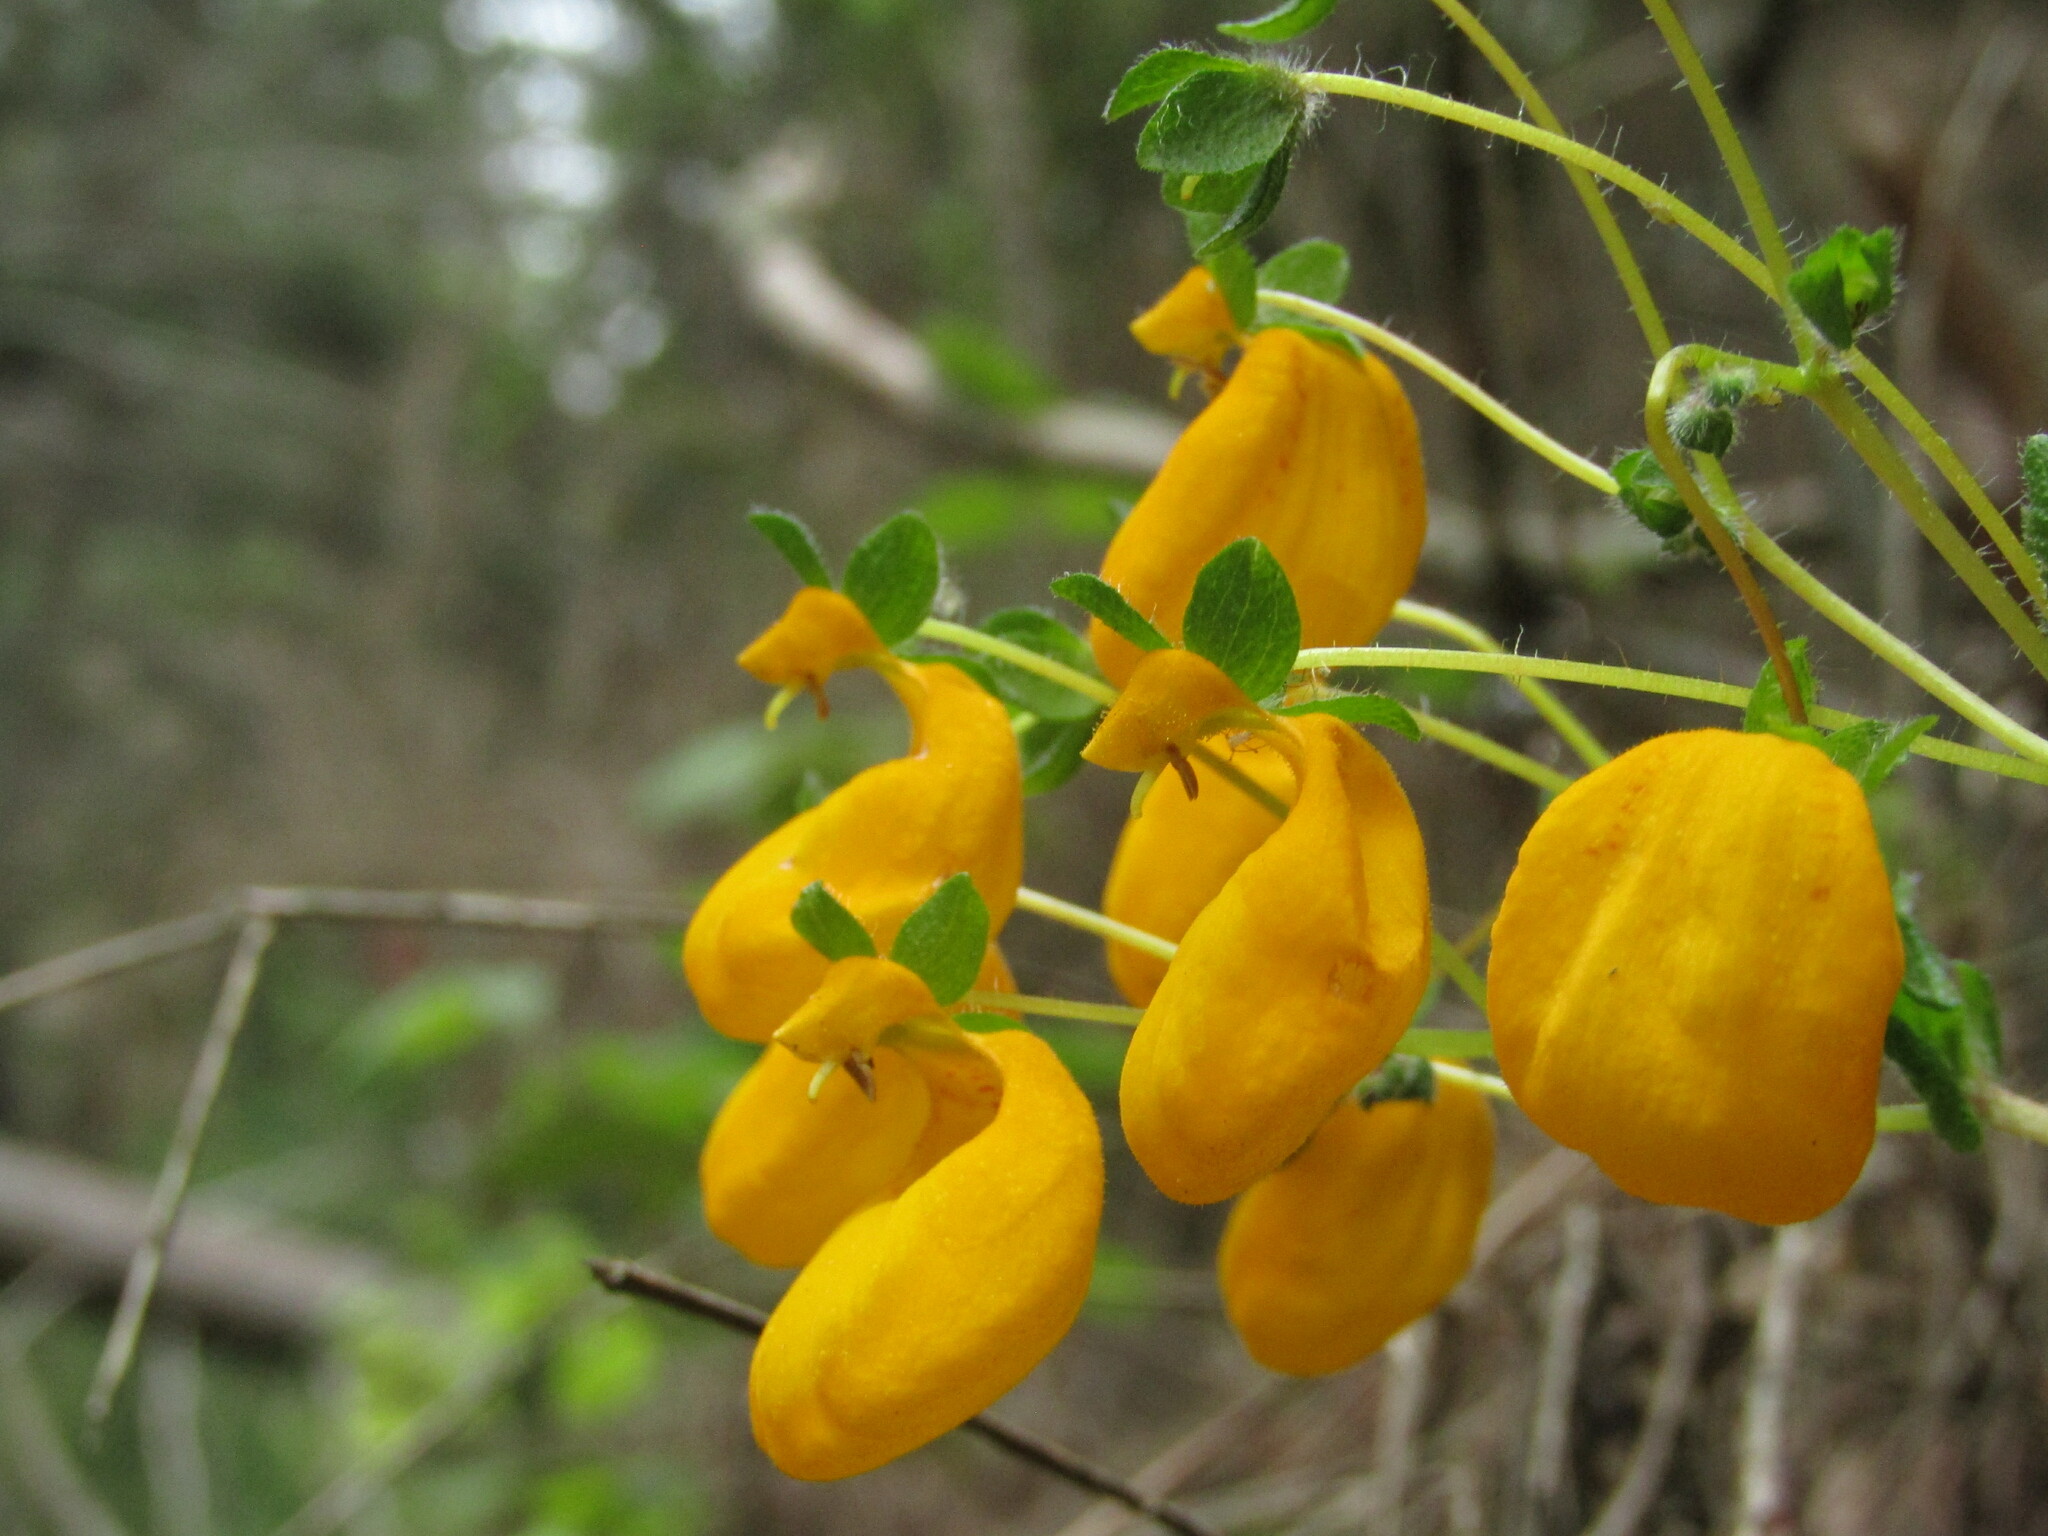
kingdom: Plantae
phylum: Tracheophyta
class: Magnoliopsida
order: Lamiales
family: Calceolariaceae
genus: Calceolaria
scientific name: Calceolaria corymbosa
